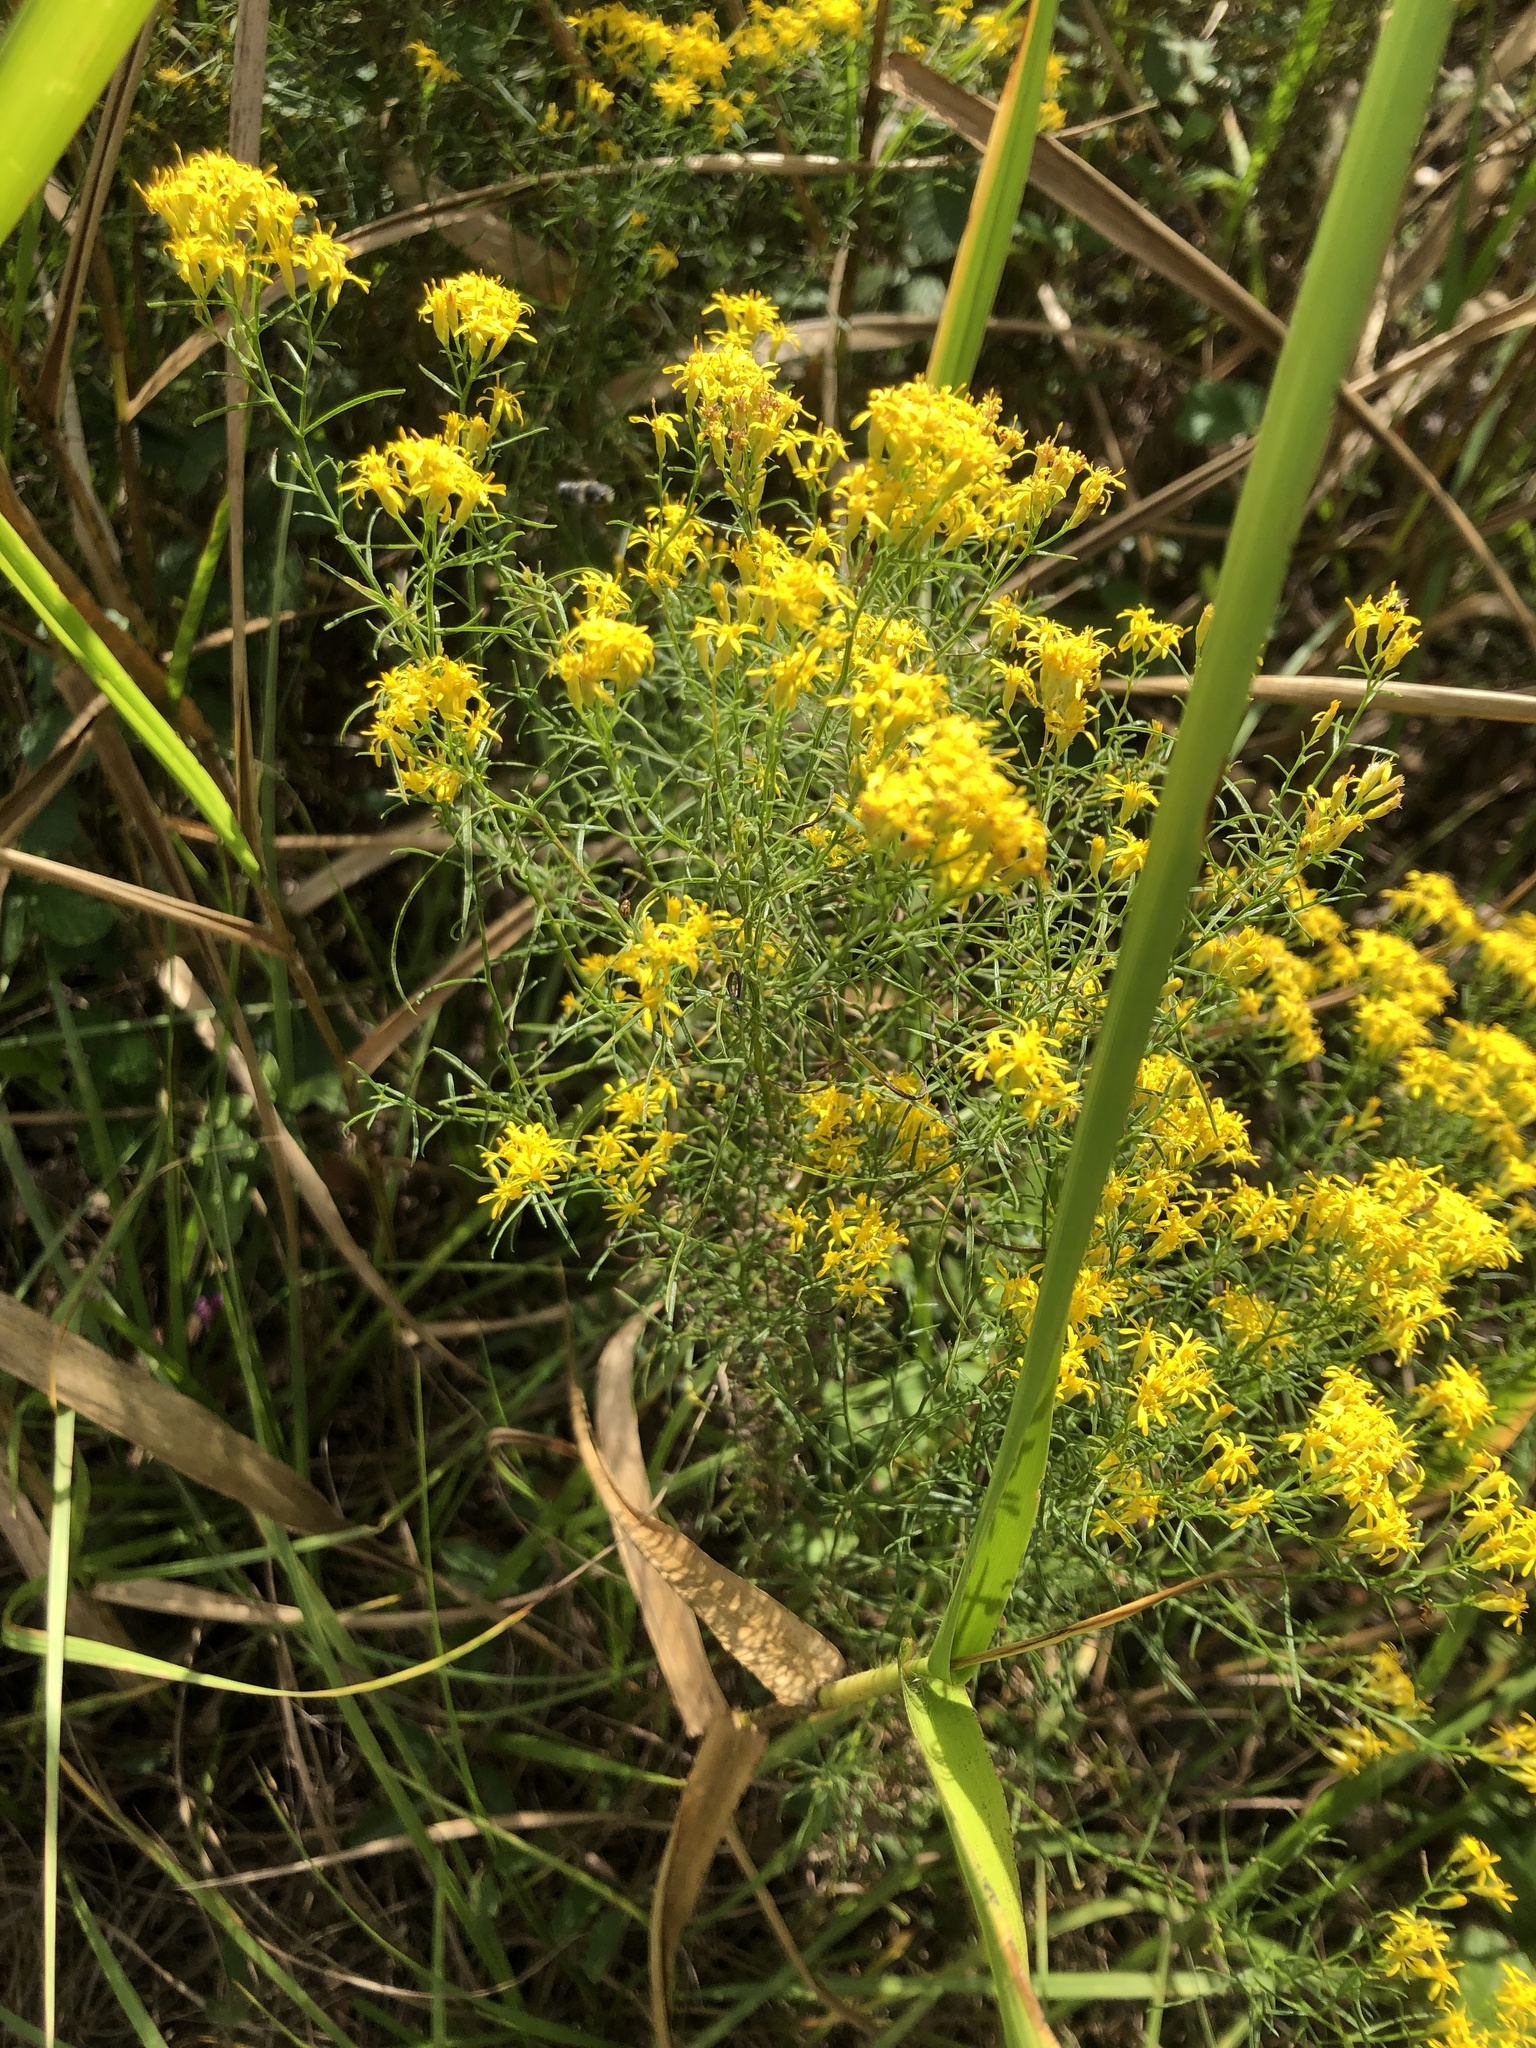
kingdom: Plantae
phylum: Tracheophyta
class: Magnoliopsida
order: Asterales
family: Asteraceae
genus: Euthamia
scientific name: Euthamia caroliniana
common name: Coastal plain goldentop
